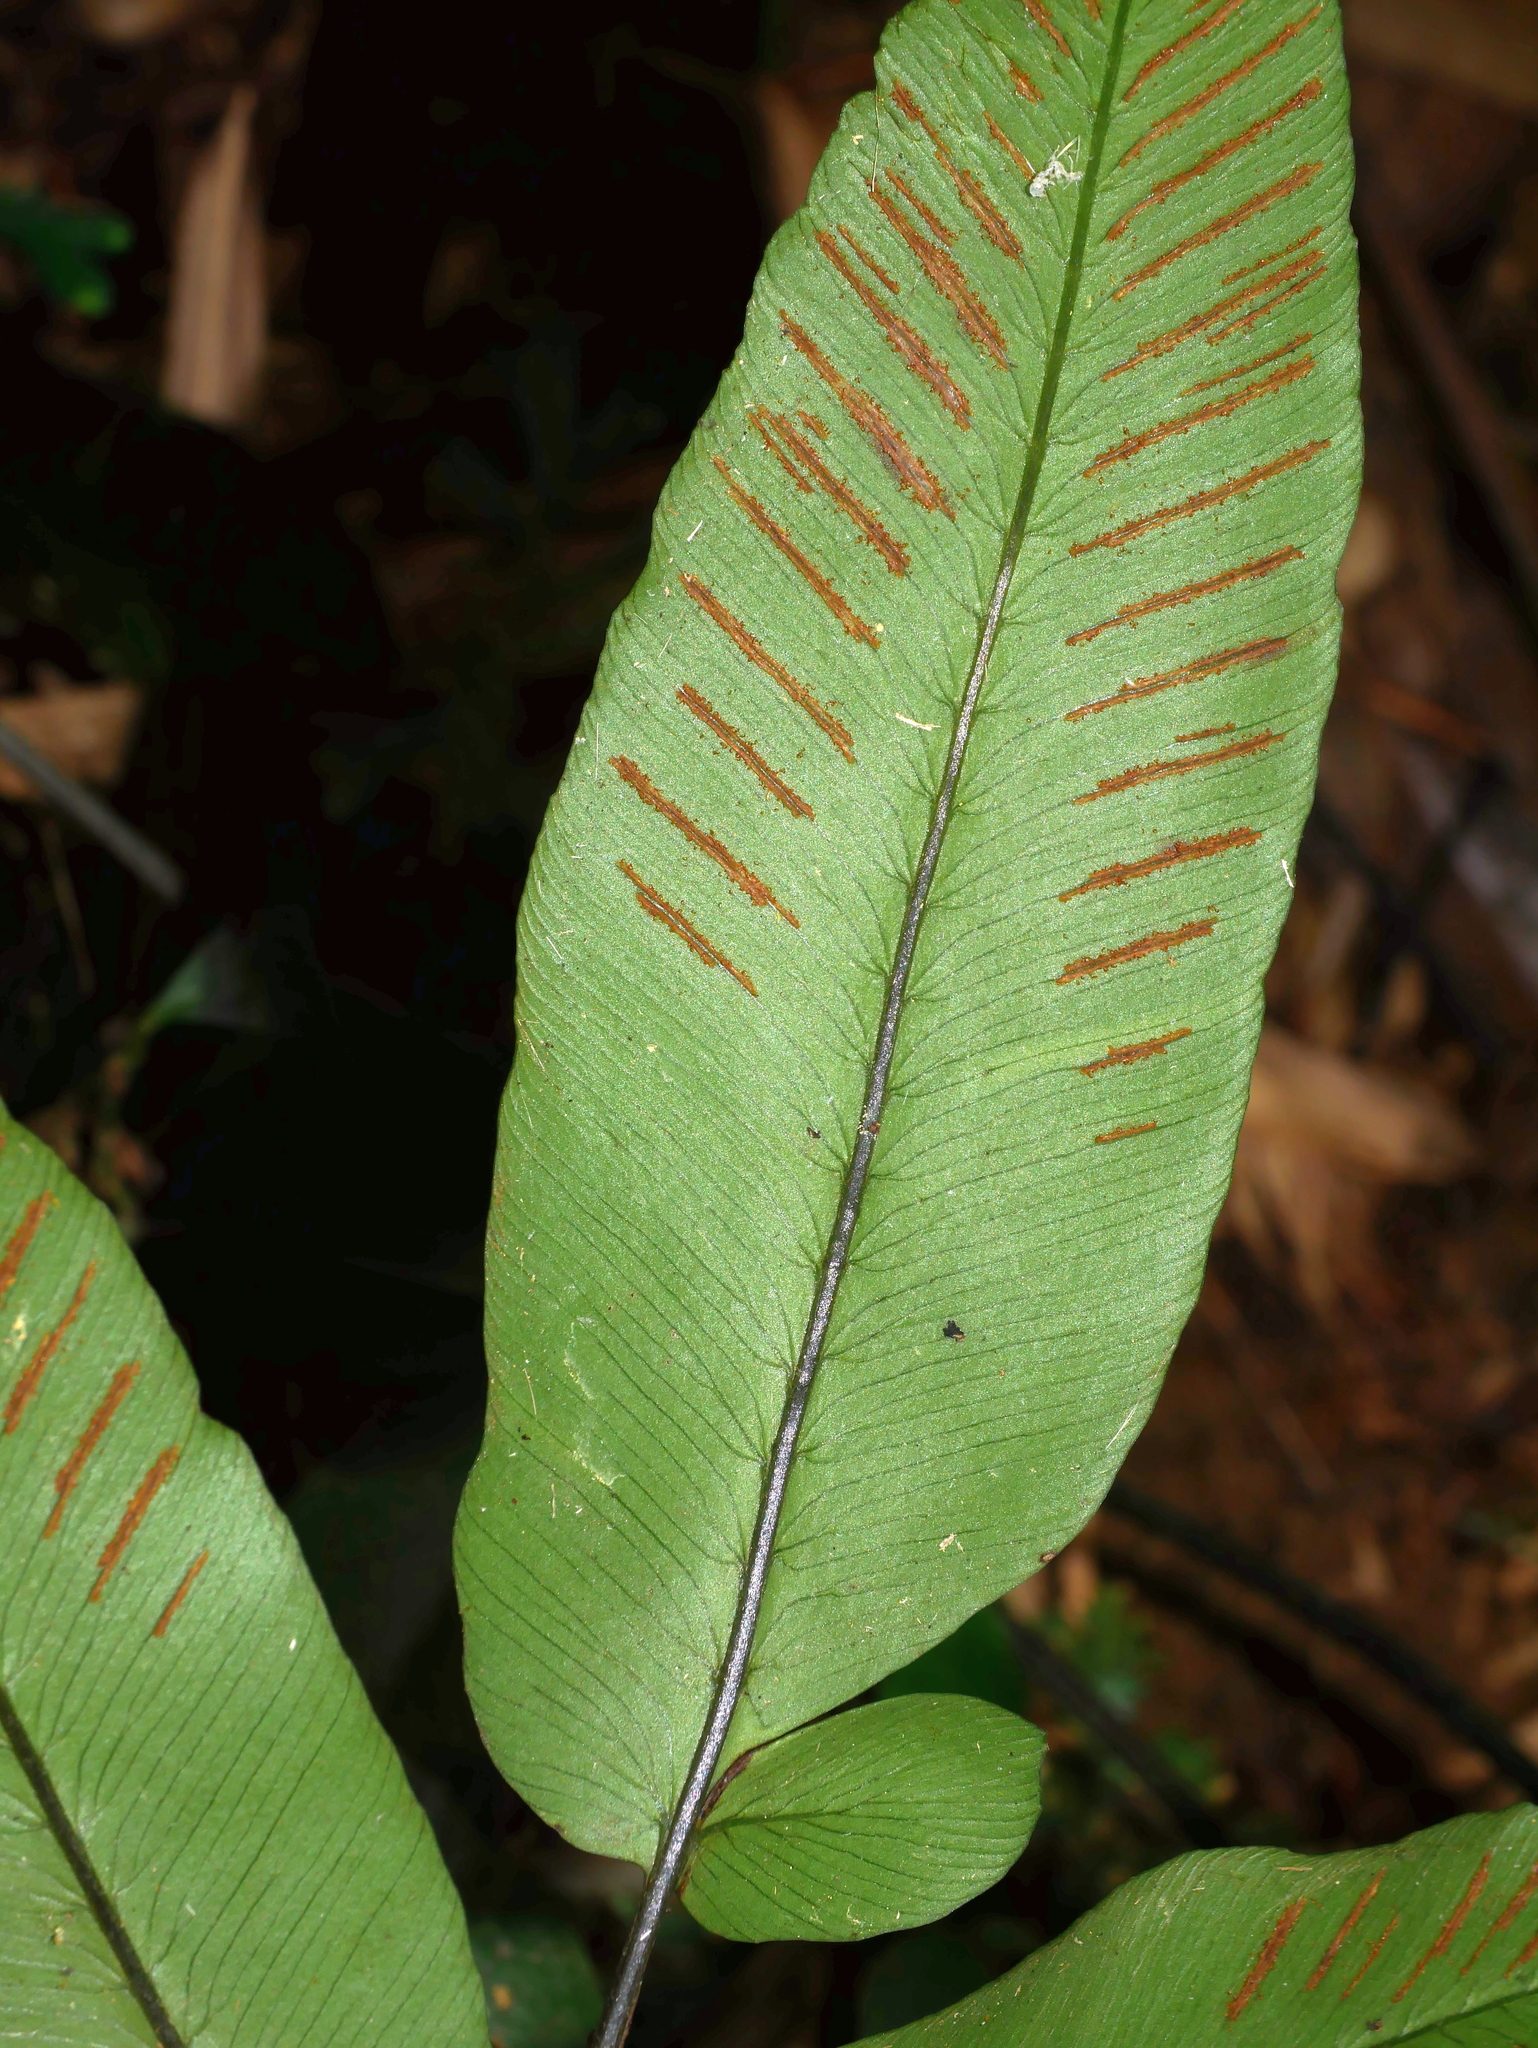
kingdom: Plantae
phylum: Tracheophyta
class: Polypodiopsida
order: Polypodiales
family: Athyriaceae
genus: Diplazium
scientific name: Diplazium lineolatum
